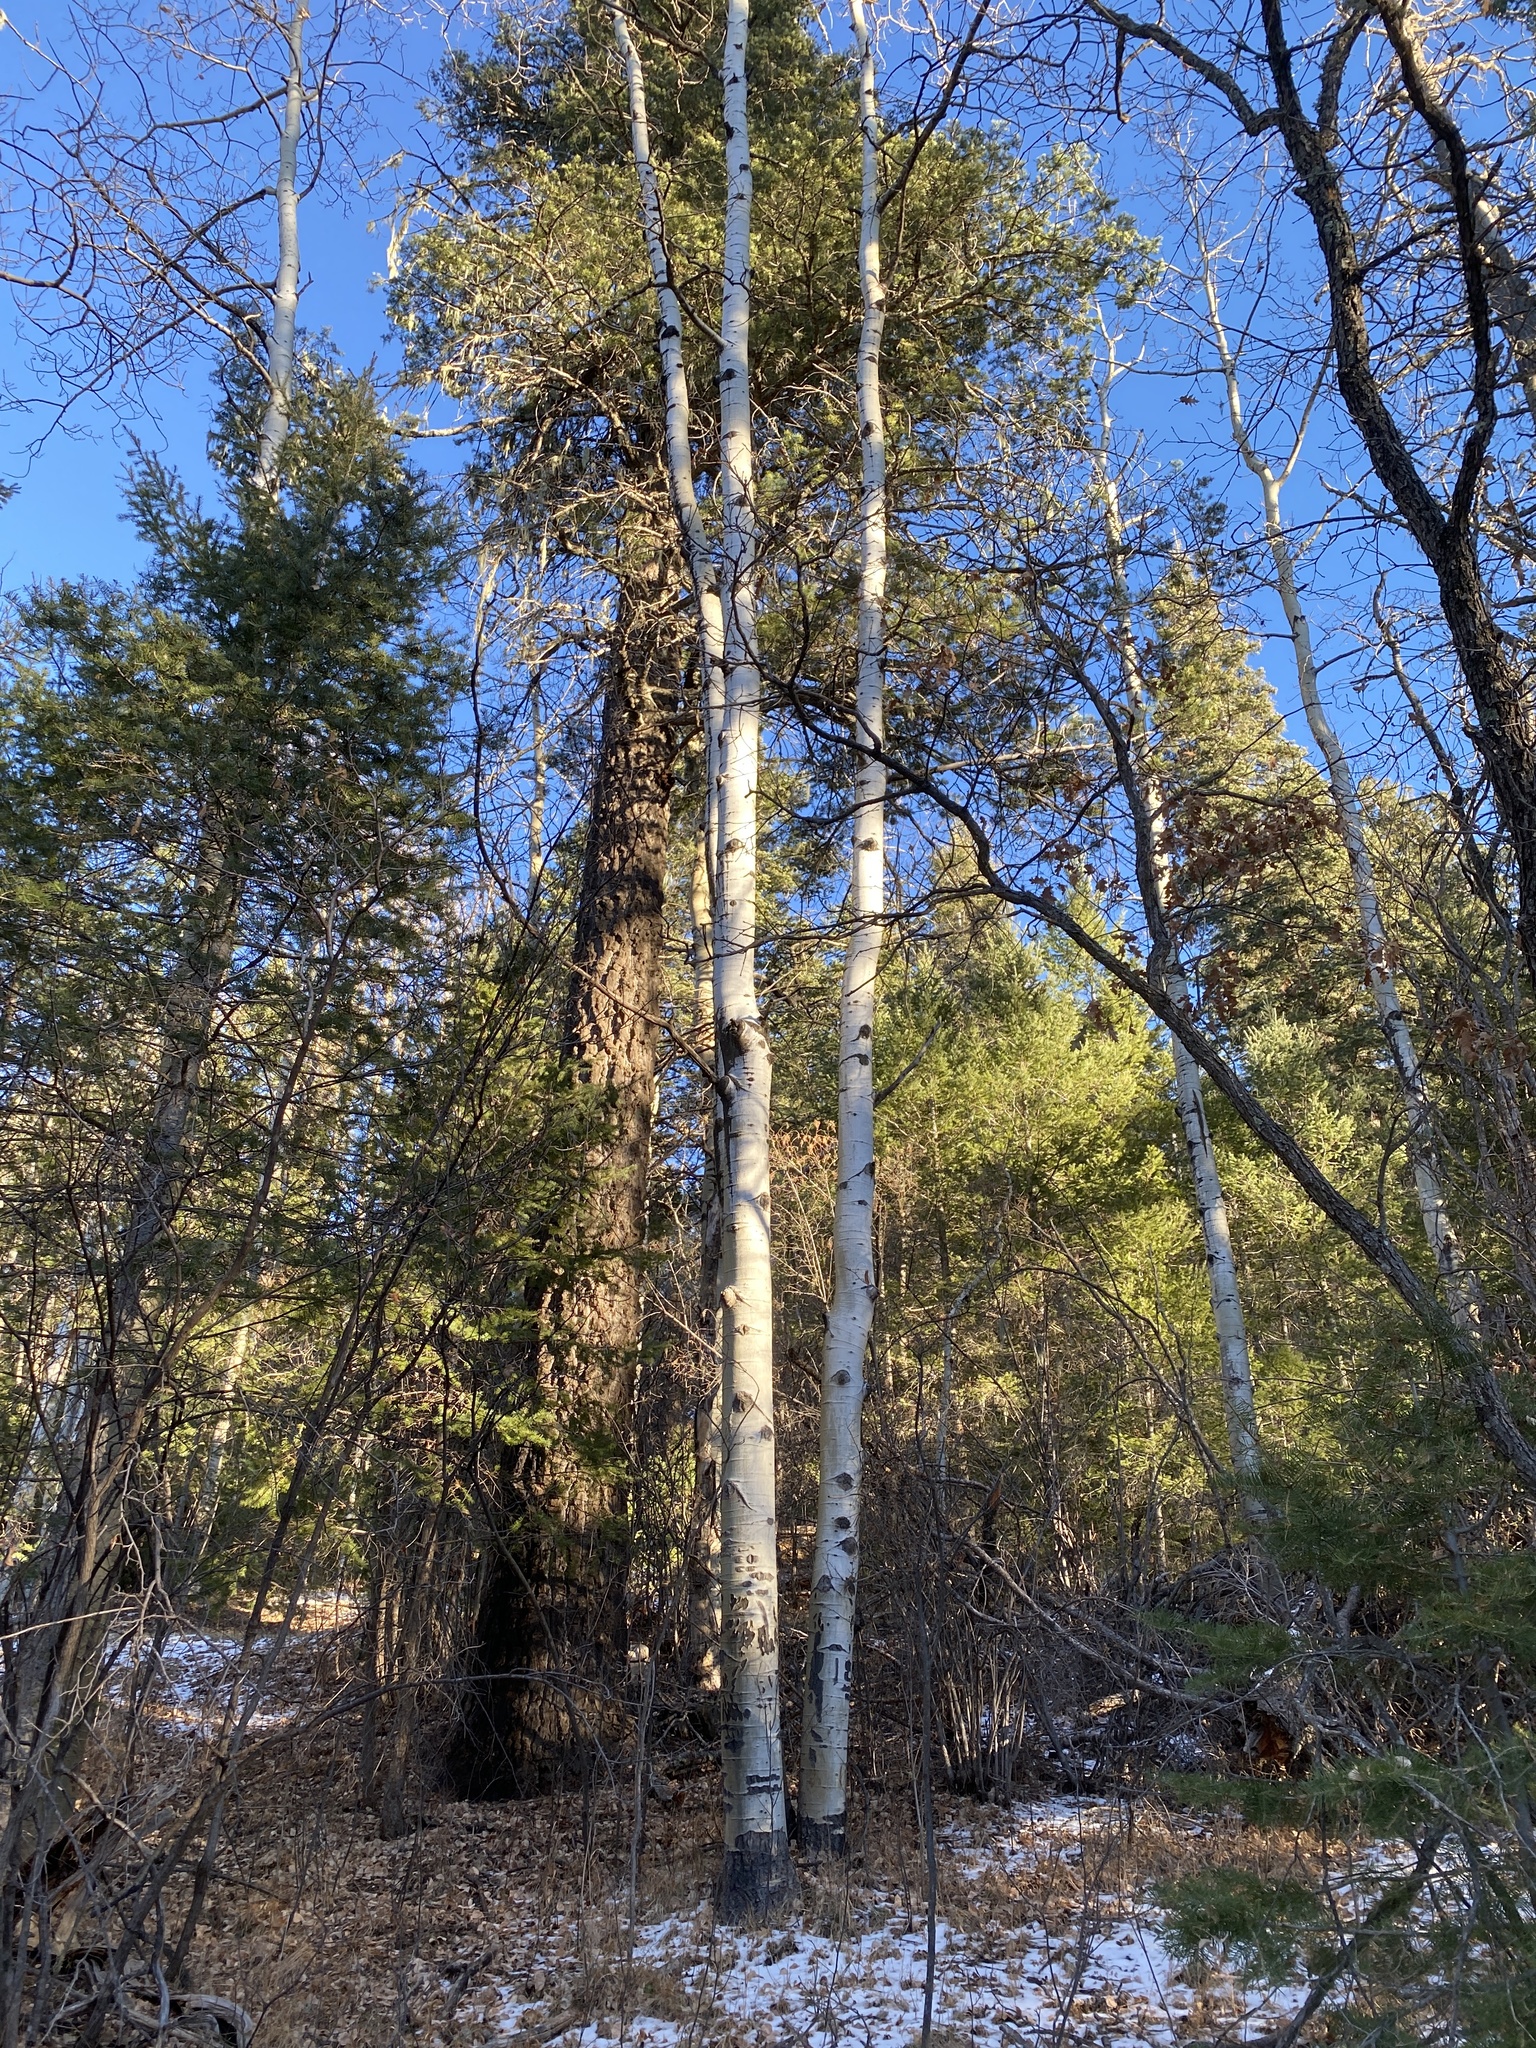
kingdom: Plantae
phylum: Tracheophyta
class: Magnoliopsida
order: Malpighiales
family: Salicaceae
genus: Populus
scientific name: Populus tremuloides
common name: Quaking aspen
